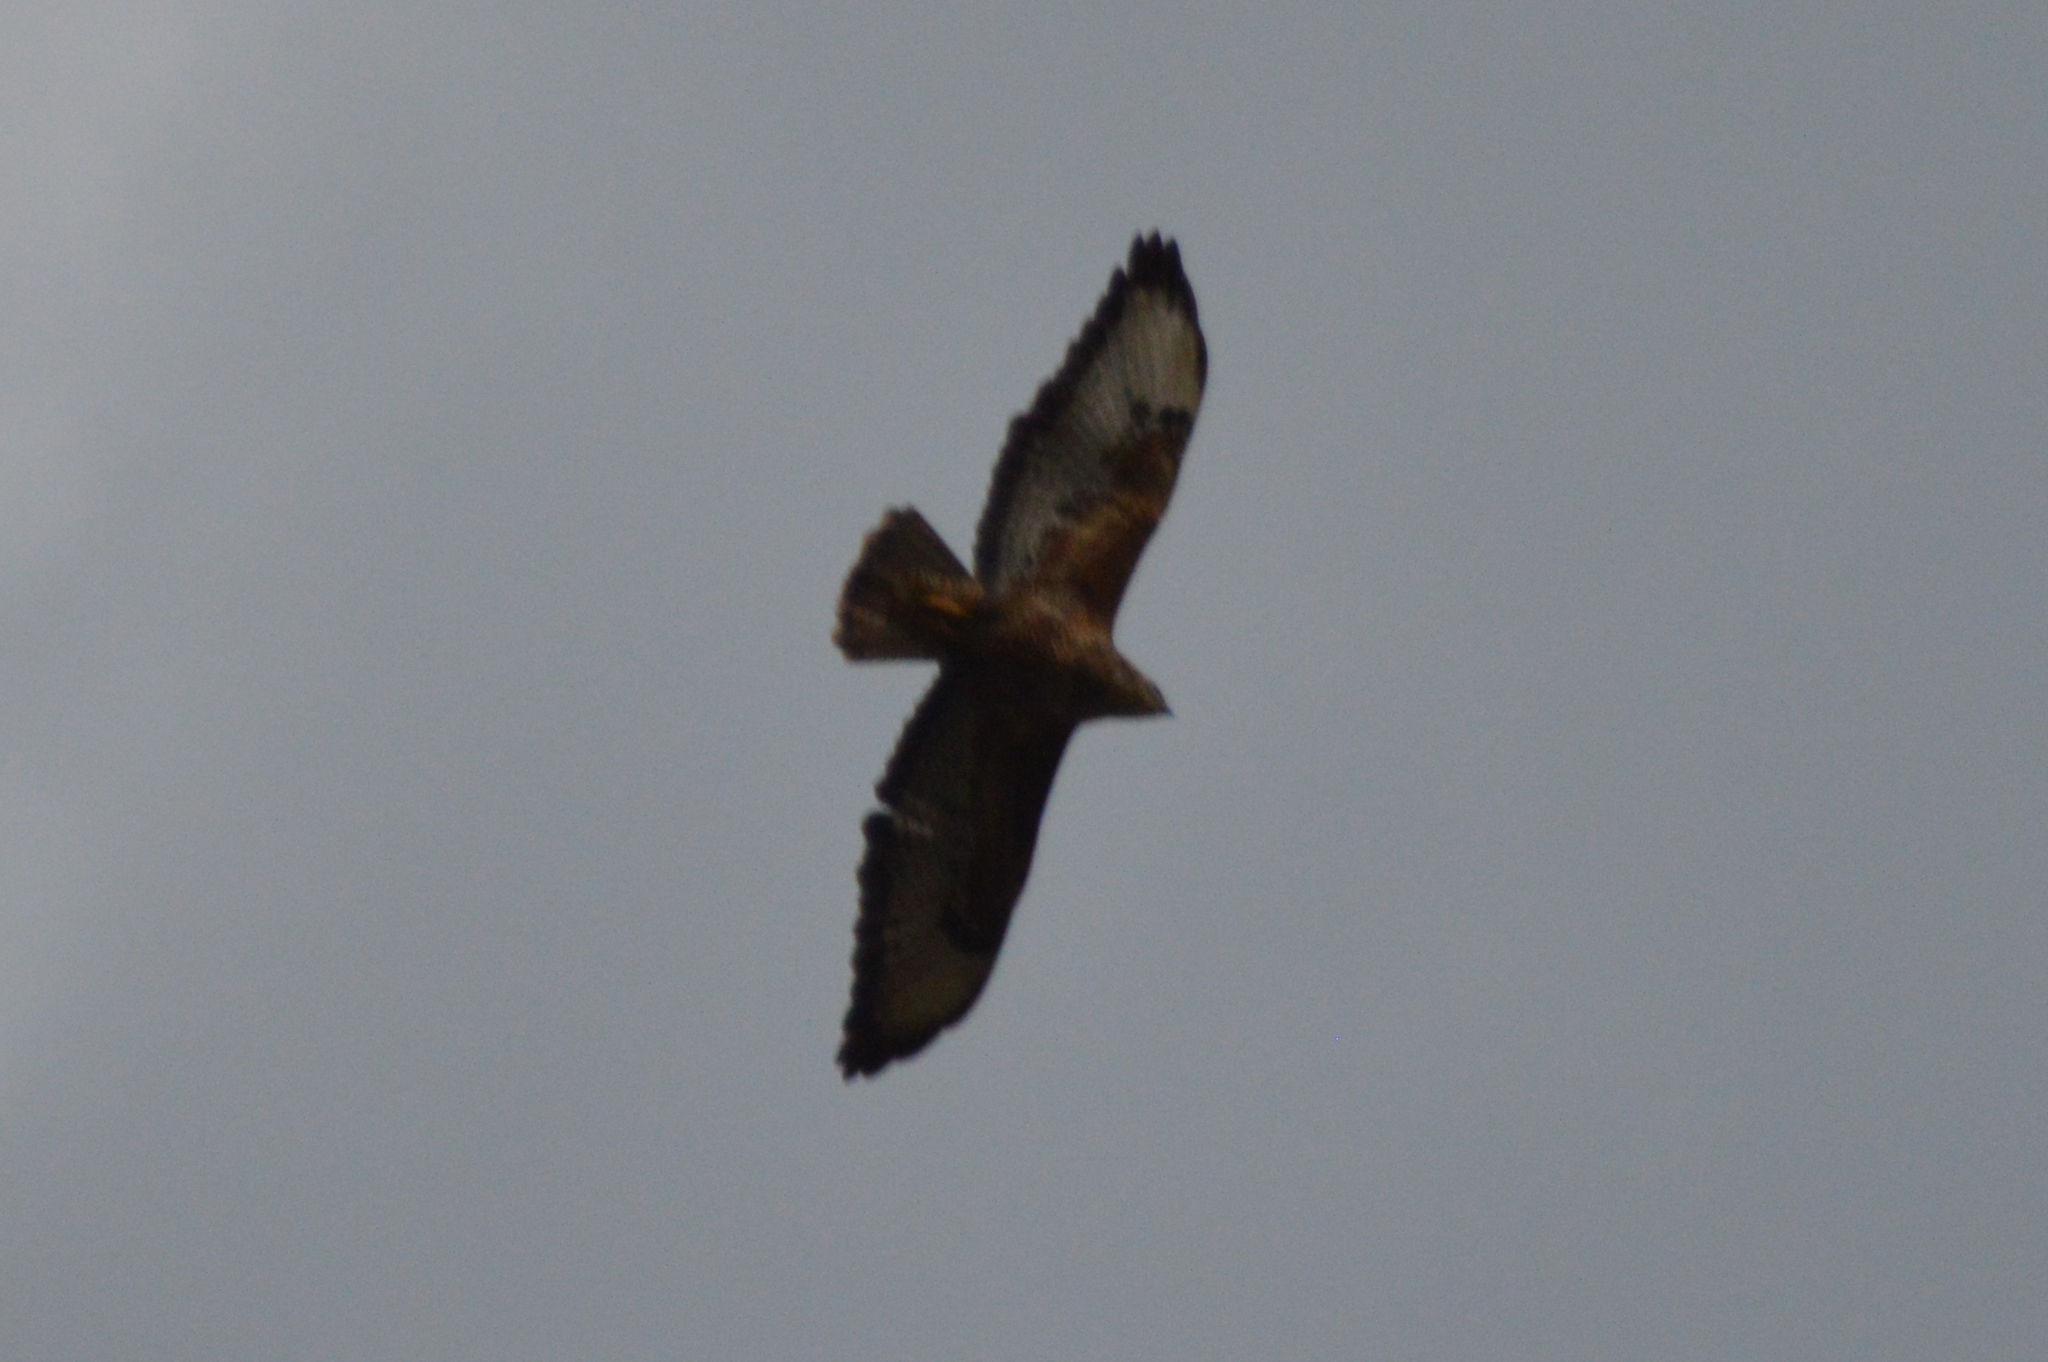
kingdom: Animalia
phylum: Chordata
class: Aves
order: Accipitriformes
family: Accipitridae
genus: Buteo
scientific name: Buteo buteo
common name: Common buzzard
